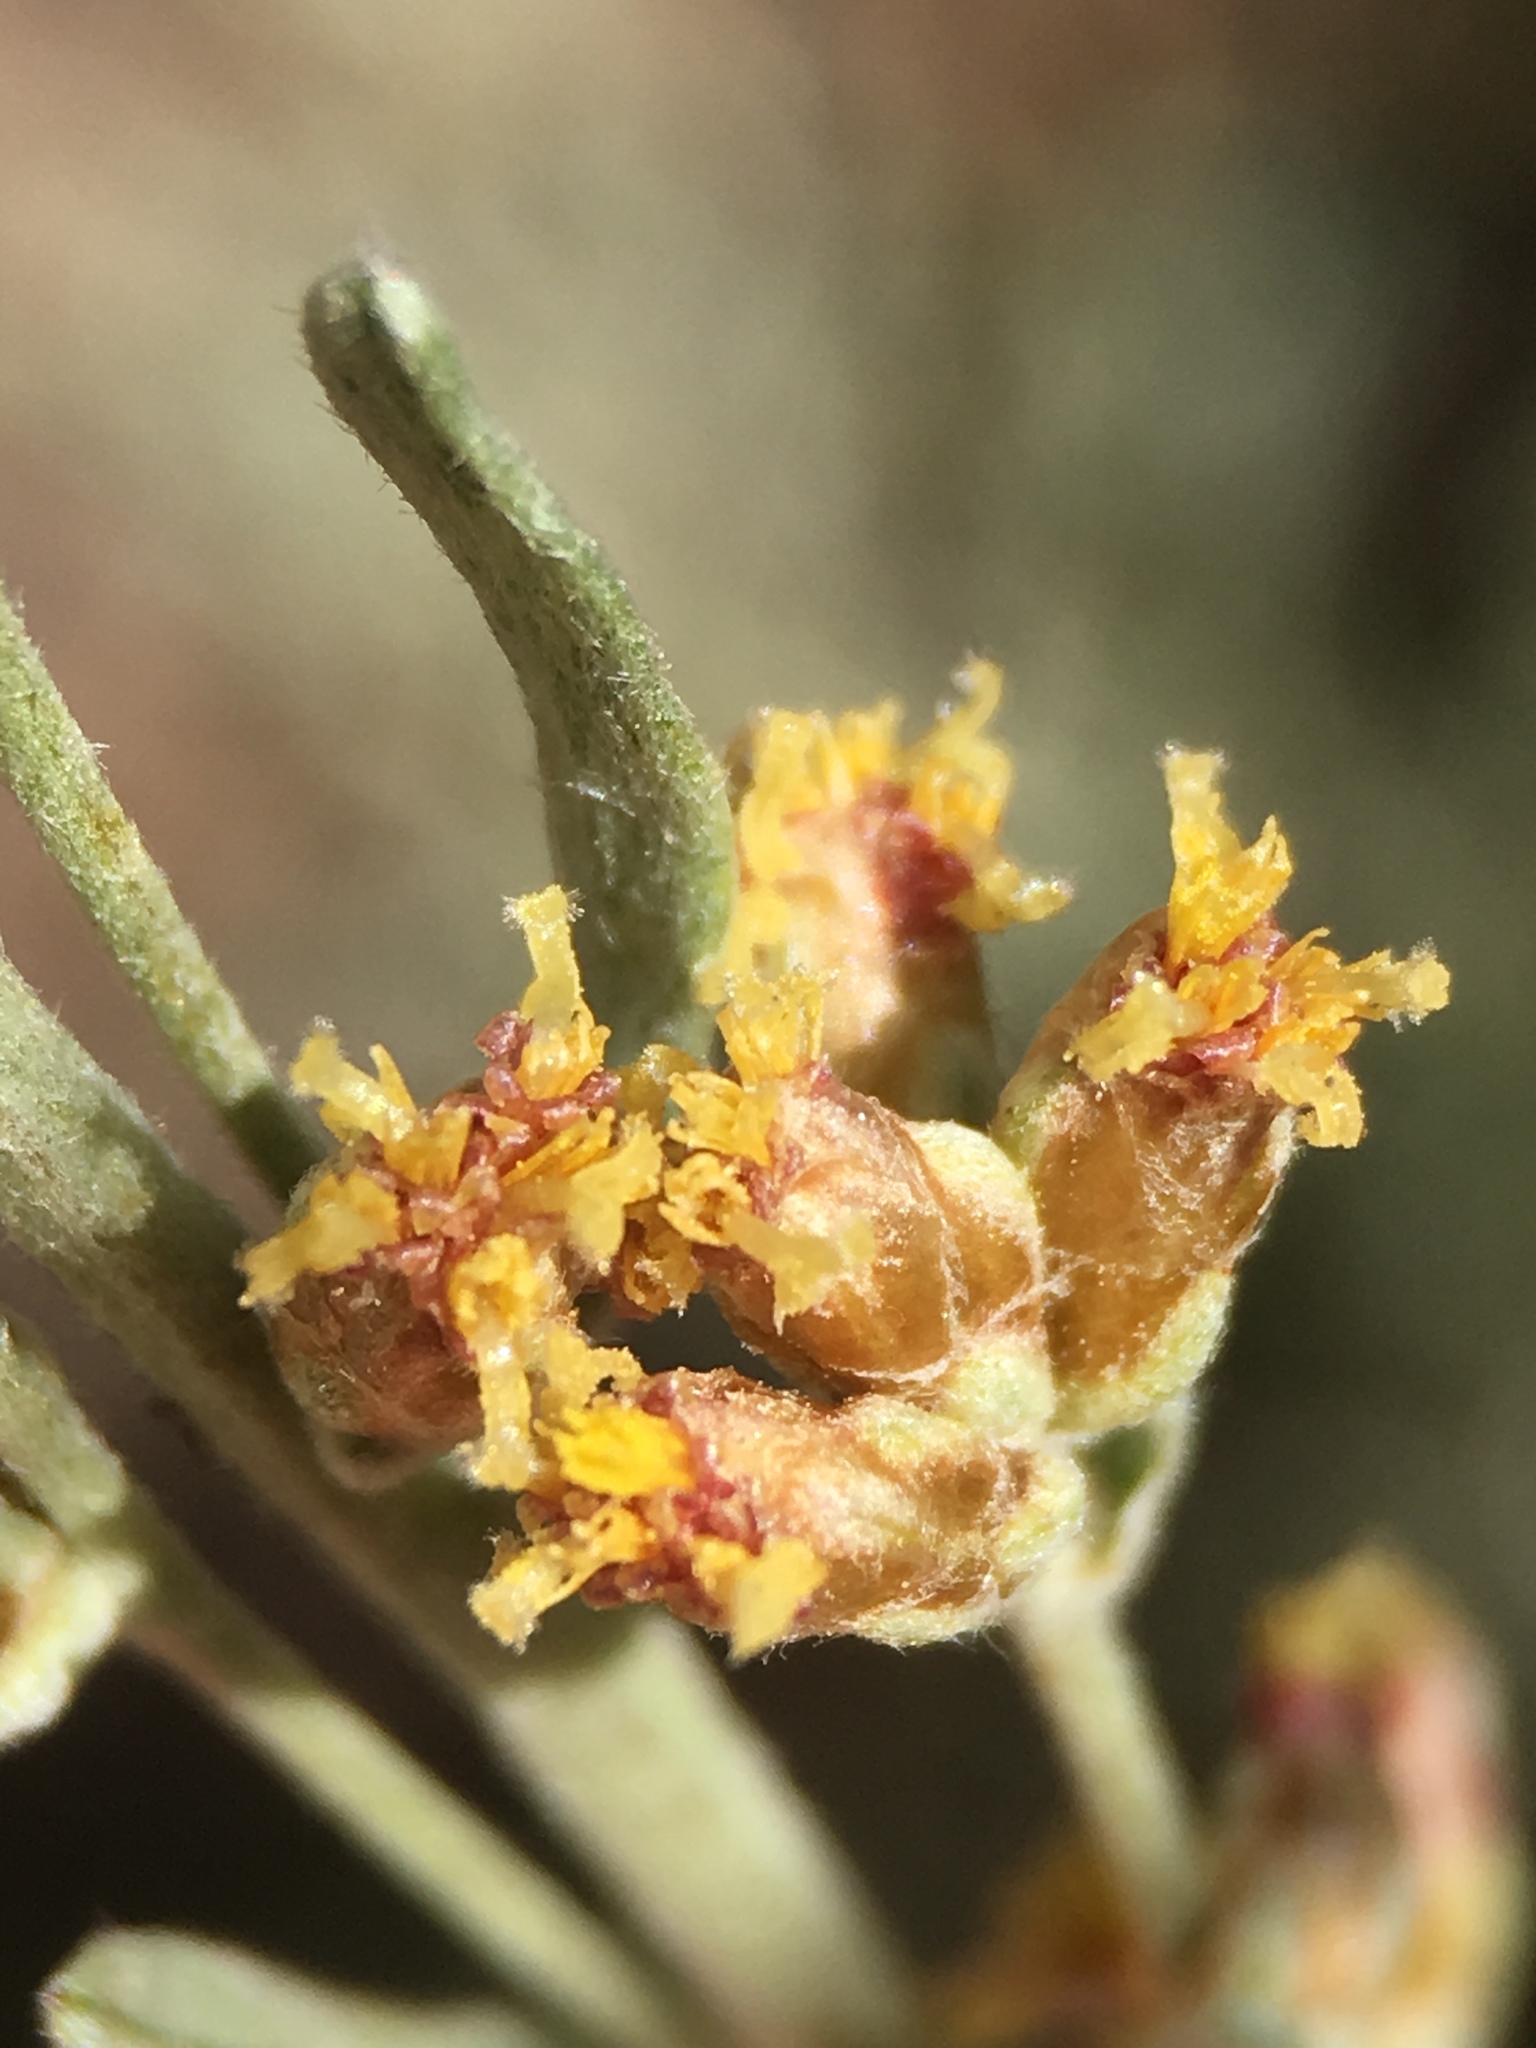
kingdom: Plantae
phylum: Tracheophyta
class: Magnoliopsida
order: Asterales
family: Asteraceae
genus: Artemisia
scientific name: Artemisia tridentata
